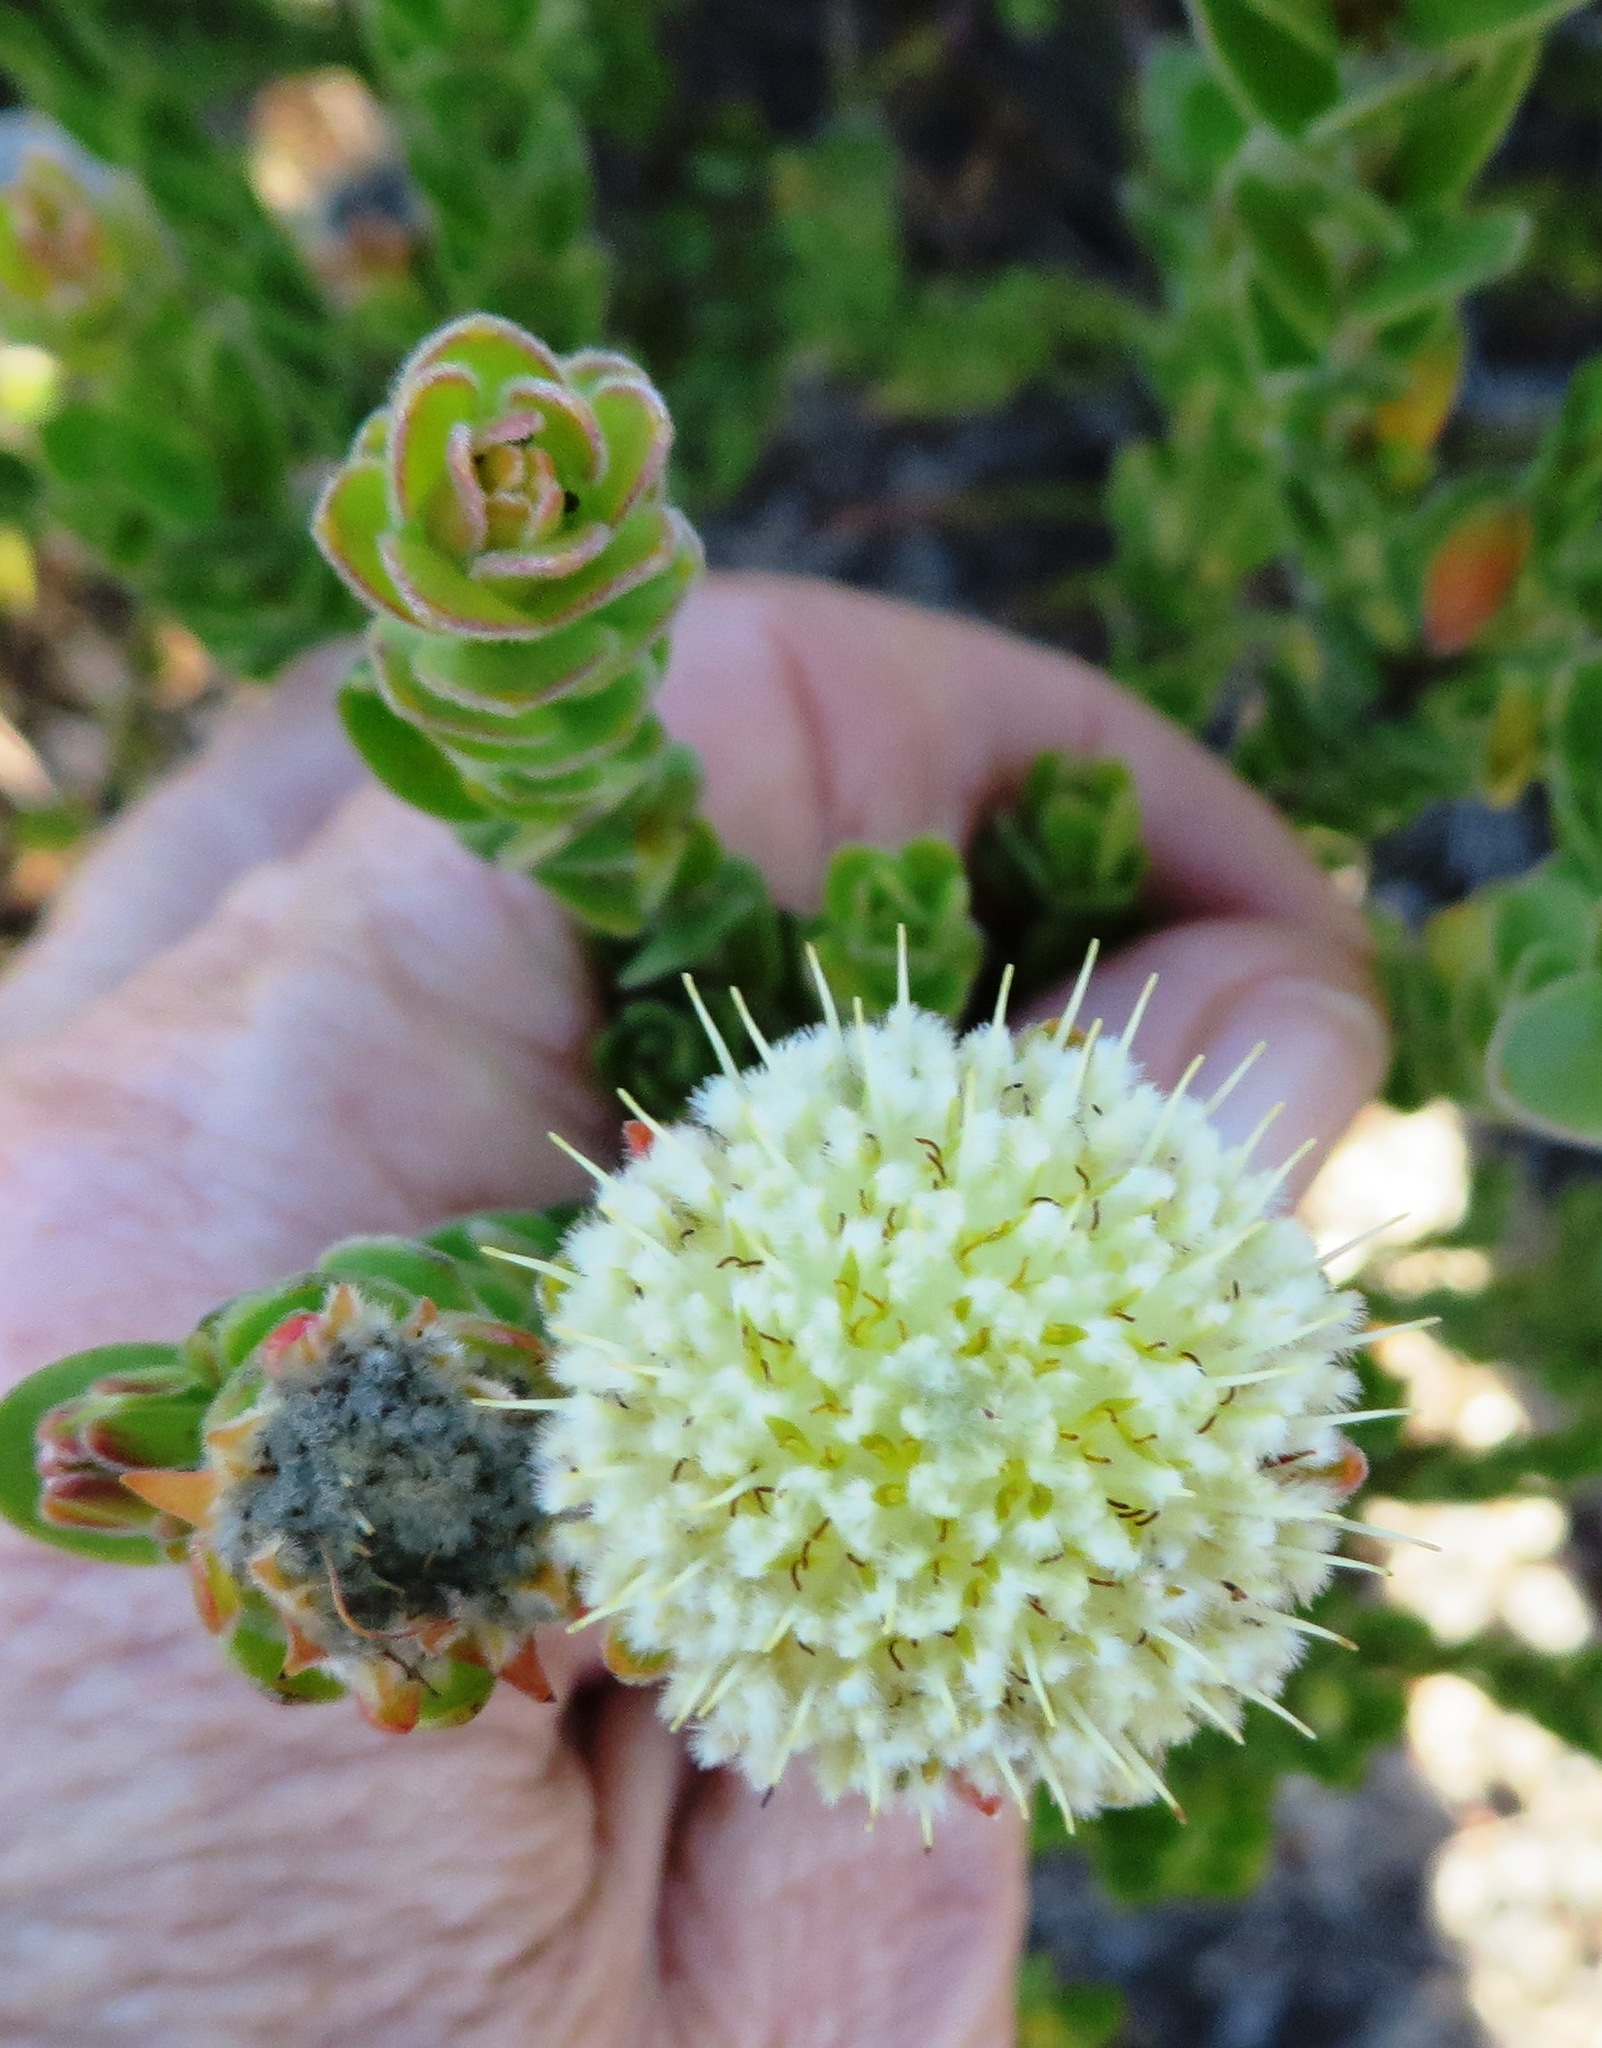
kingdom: Plantae
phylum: Tracheophyta
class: Magnoliopsida
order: Proteales
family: Proteaceae
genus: Diastella
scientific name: Diastella thymelaeoides
